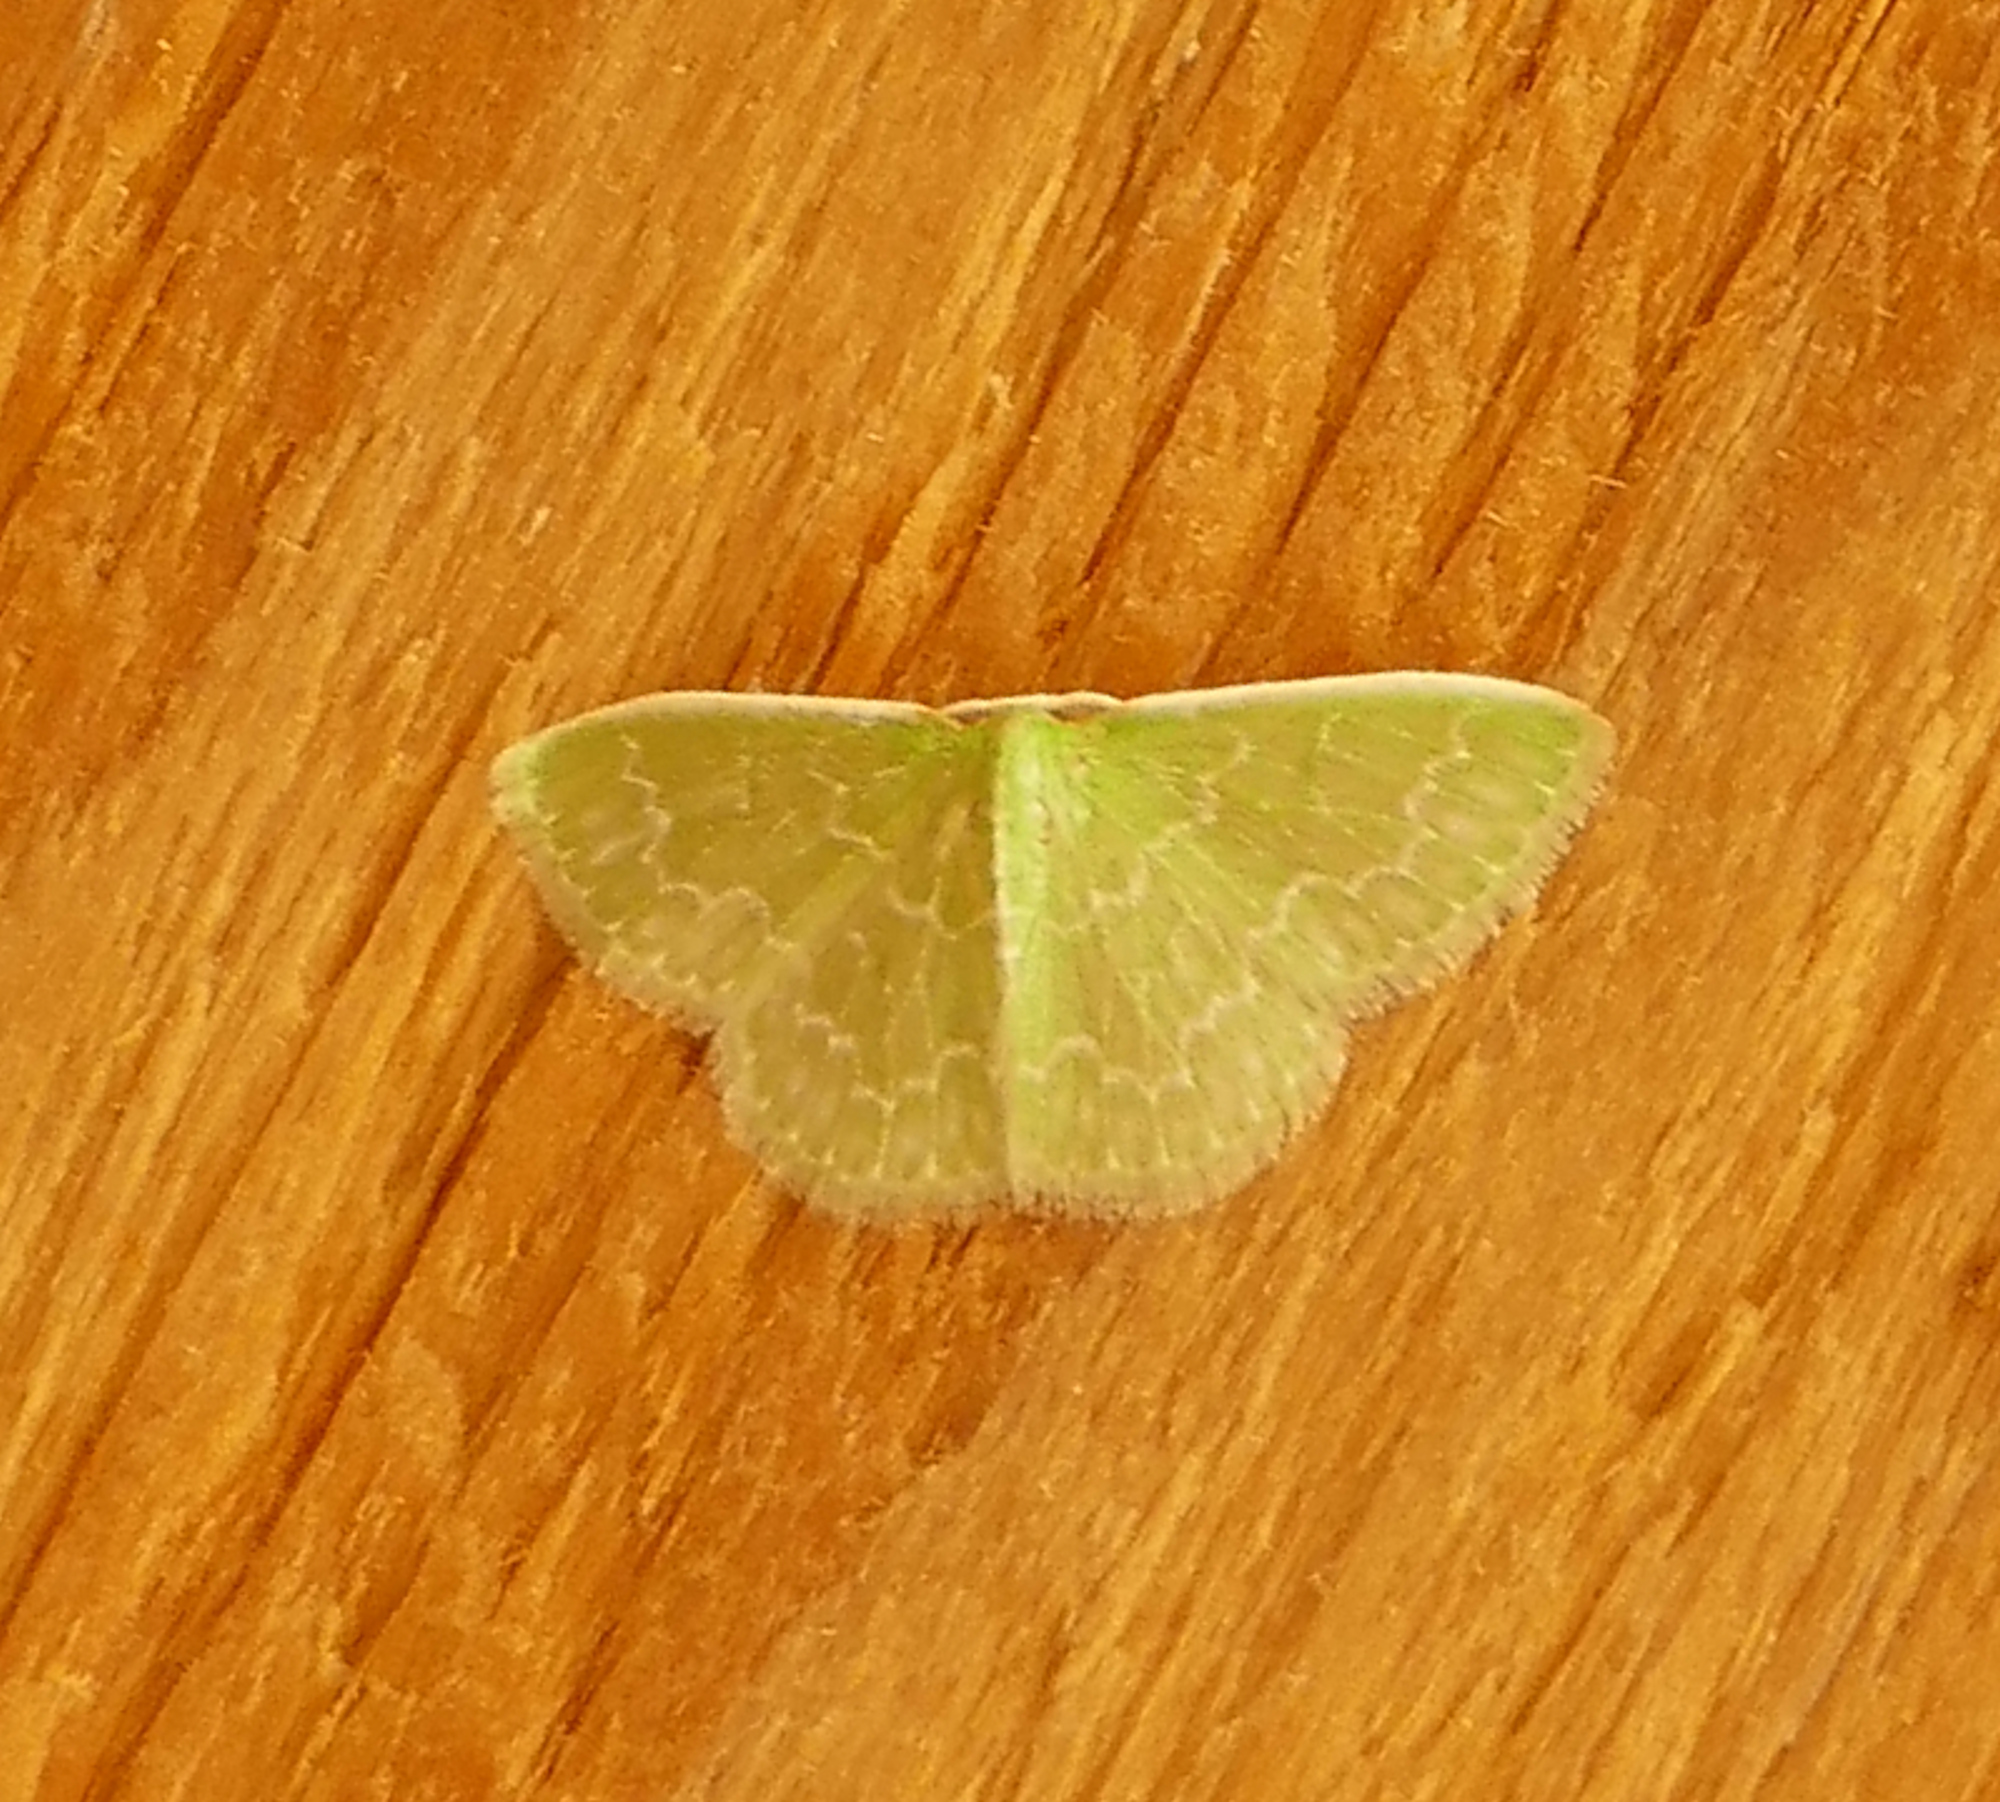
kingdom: Animalia
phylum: Arthropoda
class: Insecta
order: Lepidoptera
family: Geometridae
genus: Synchlora
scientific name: Synchlora frondaria
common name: Southern emerald
